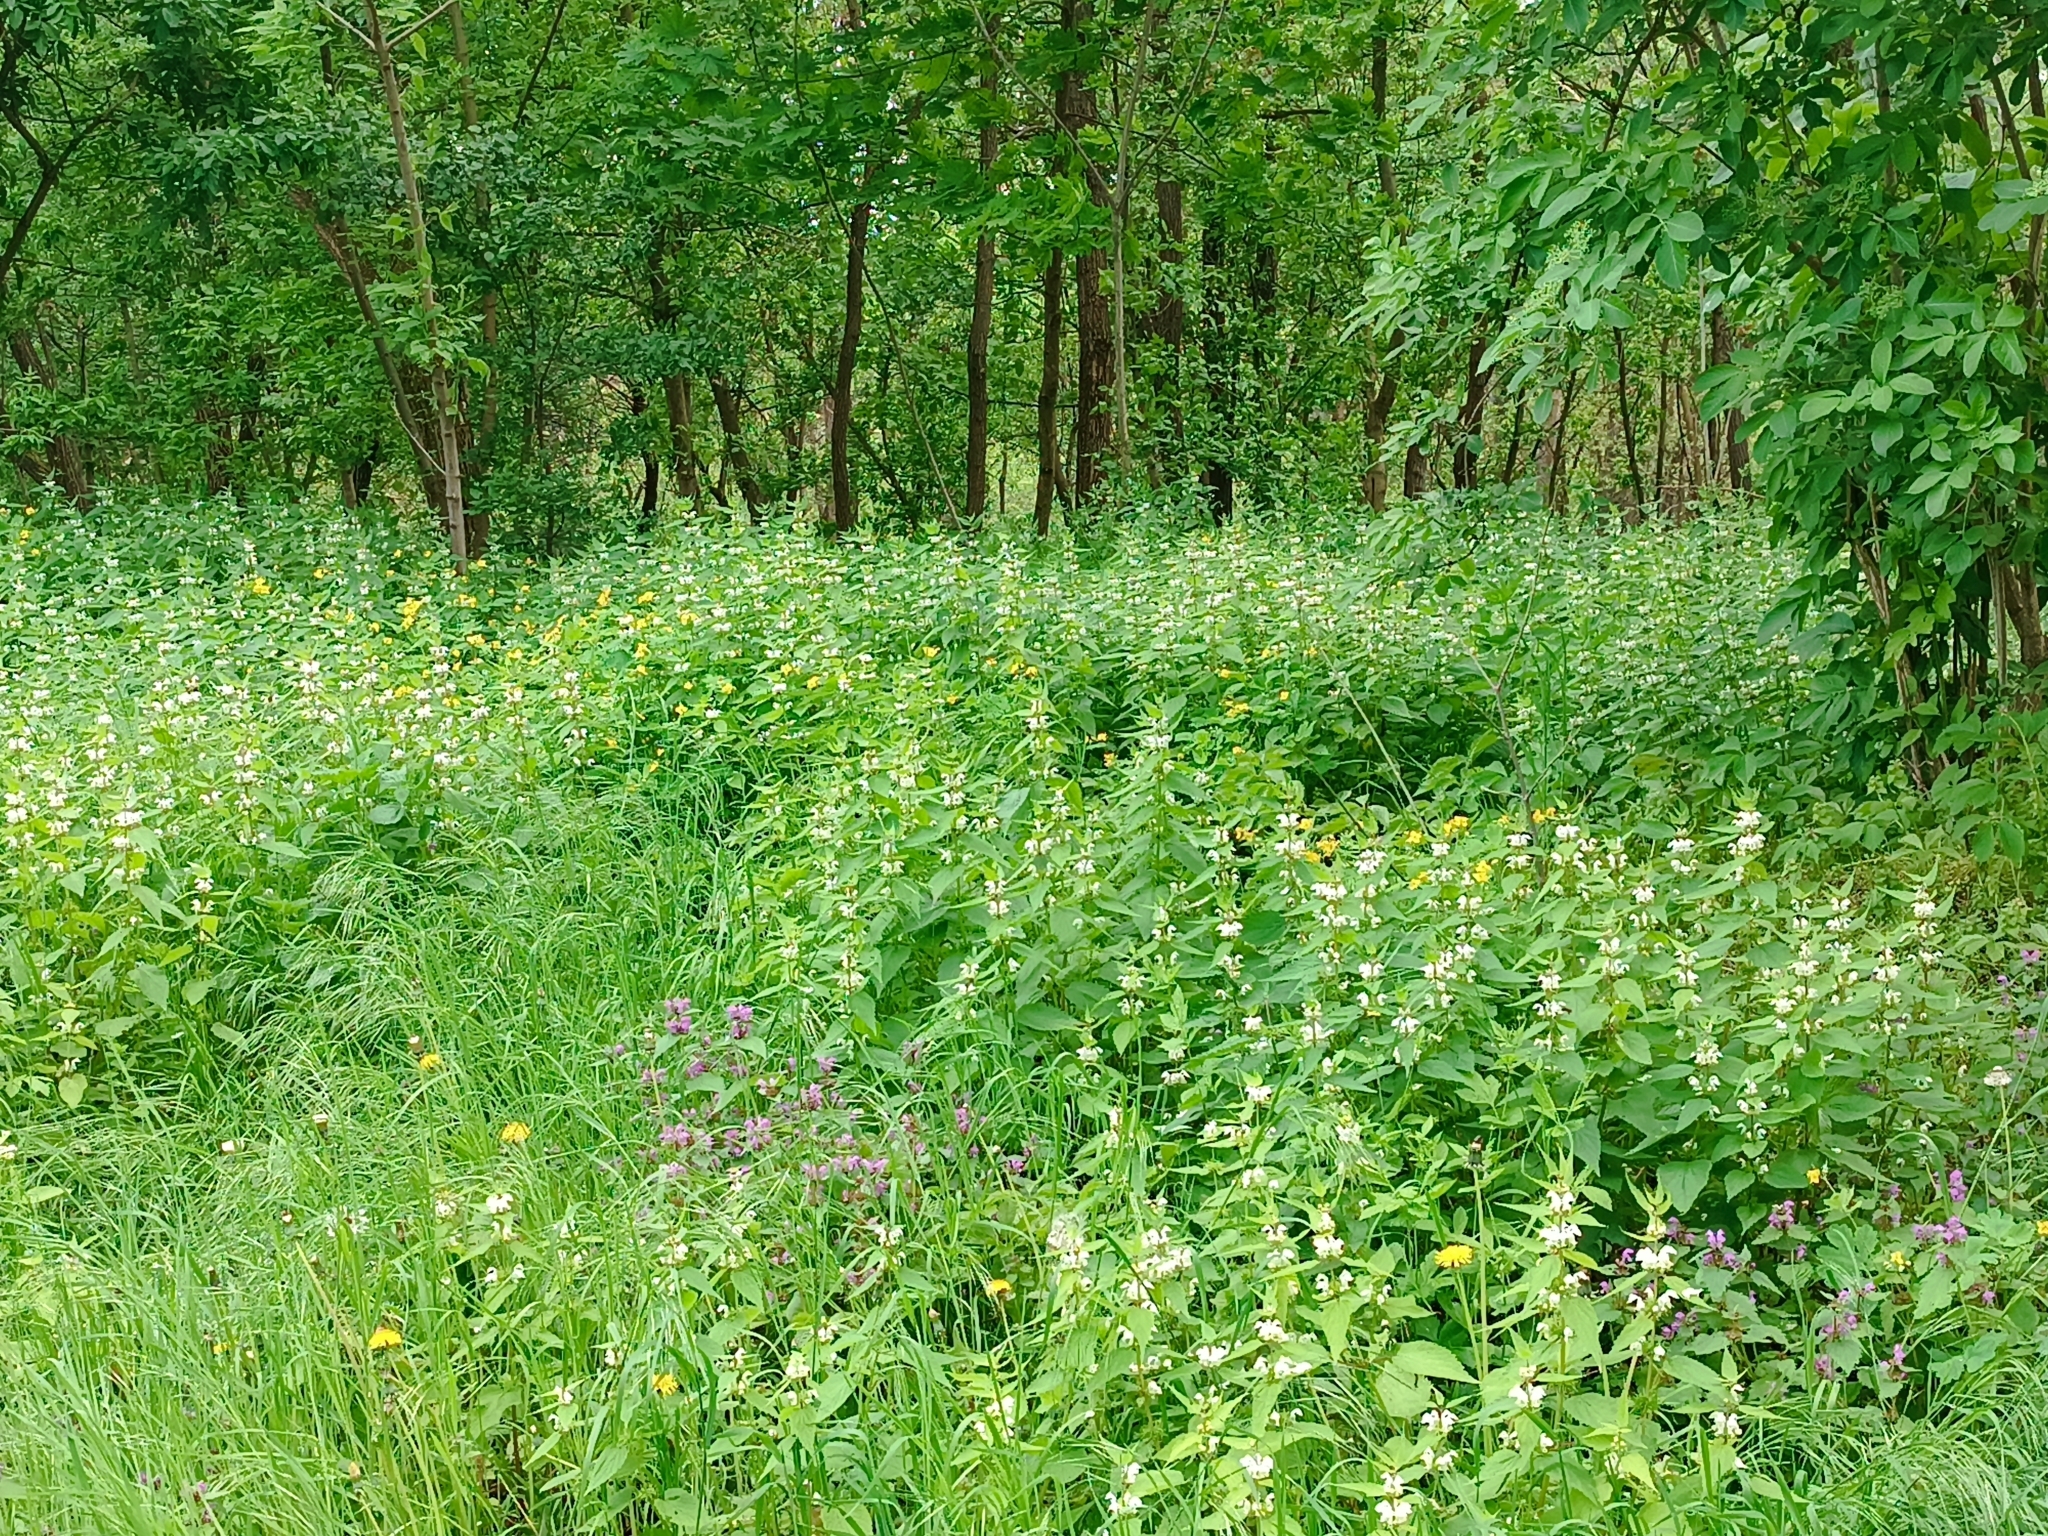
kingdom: Plantae
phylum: Tracheophyta
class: Magnoliopsida
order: Lamiales
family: Lamiaceae
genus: Lamium
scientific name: Lamium album
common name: White dead-nettle
